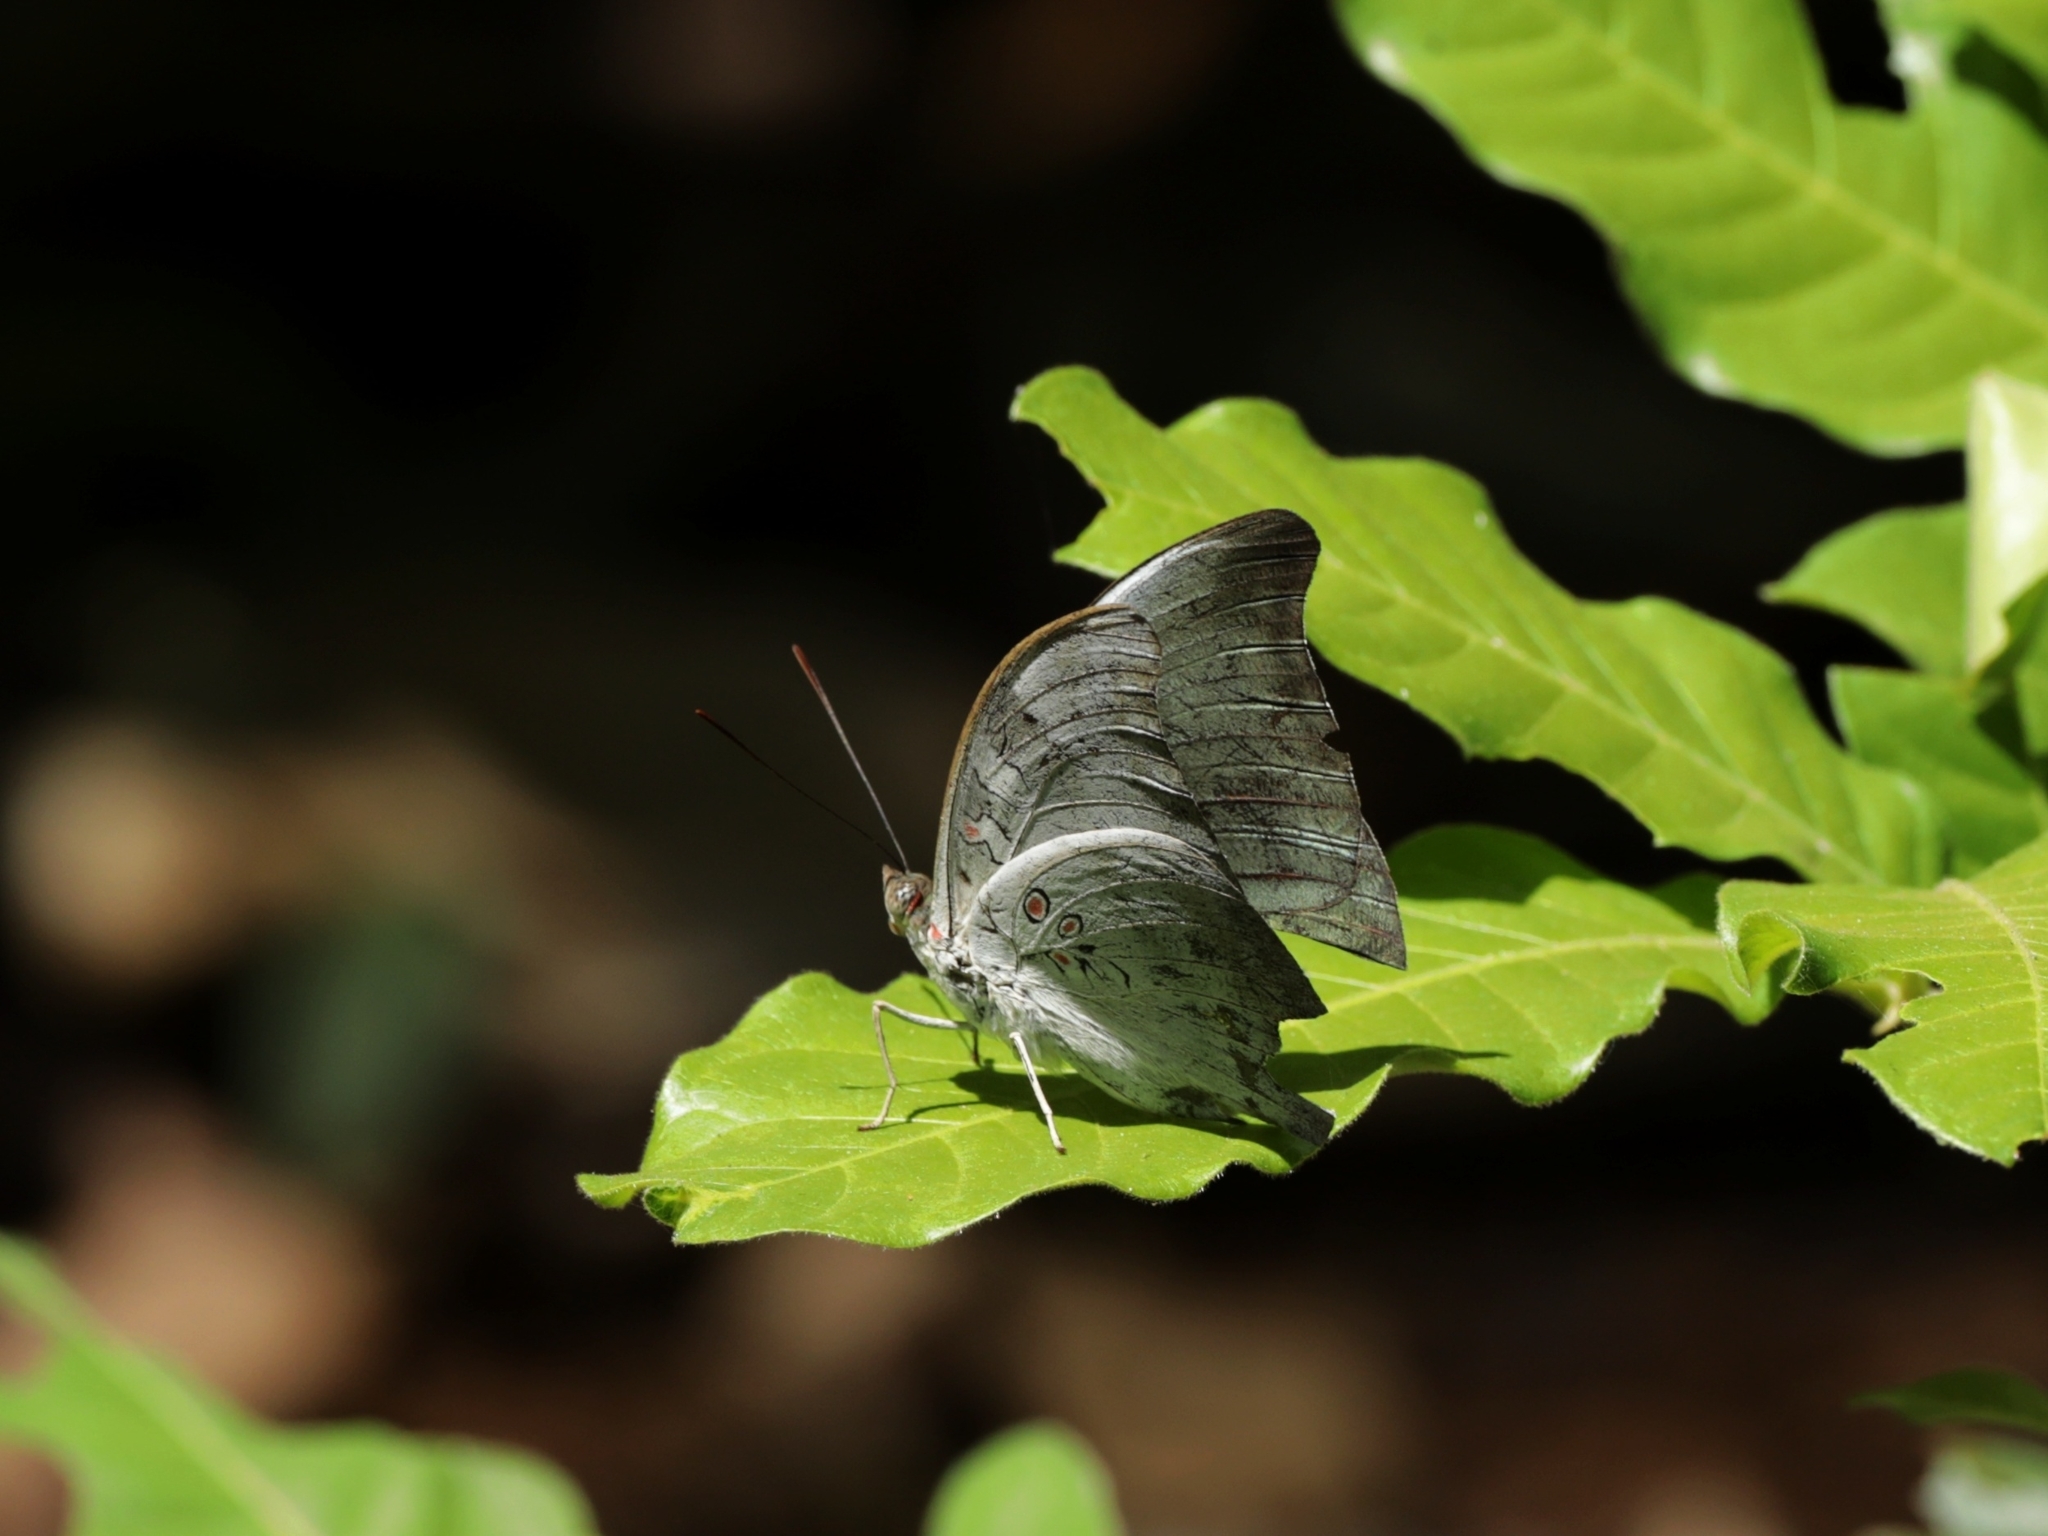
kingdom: Animalia
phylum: Arthropoda
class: Insecta
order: Lepidoptera
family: Nymphalidae
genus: Euthalia
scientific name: Euthalia Dophla evelina
